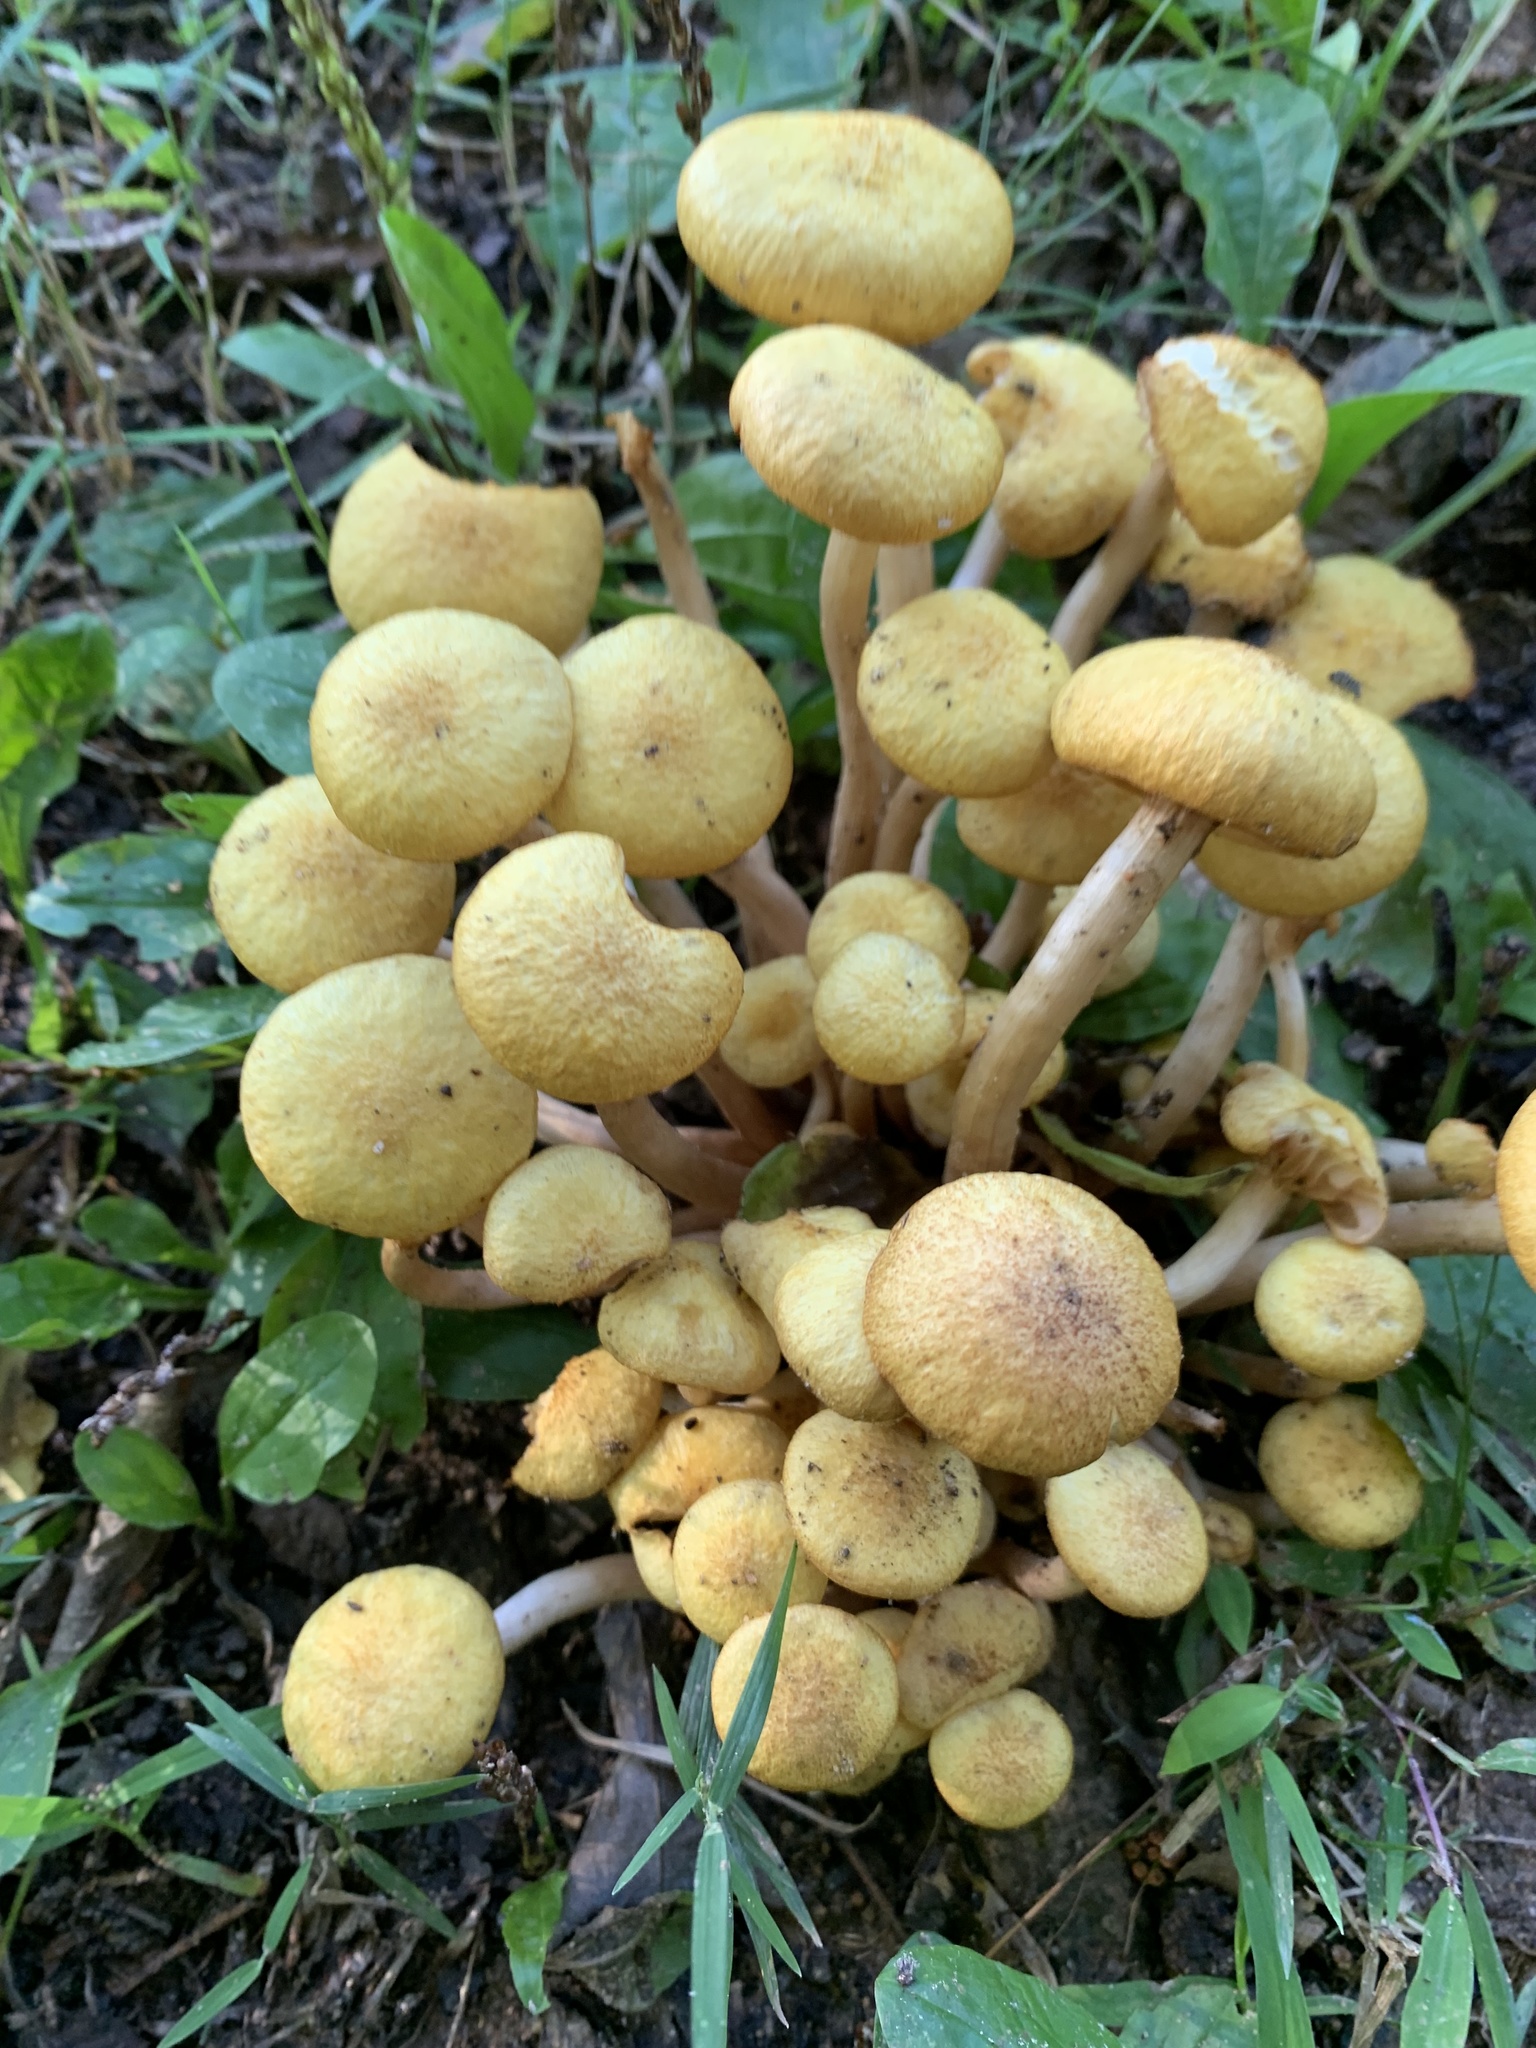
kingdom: Fungi
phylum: Basidiomycota
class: Agaricomycetes
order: Agaricales
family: Physalacriaceae
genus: Desarmillaria
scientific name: Desarmillaria caespitosa
